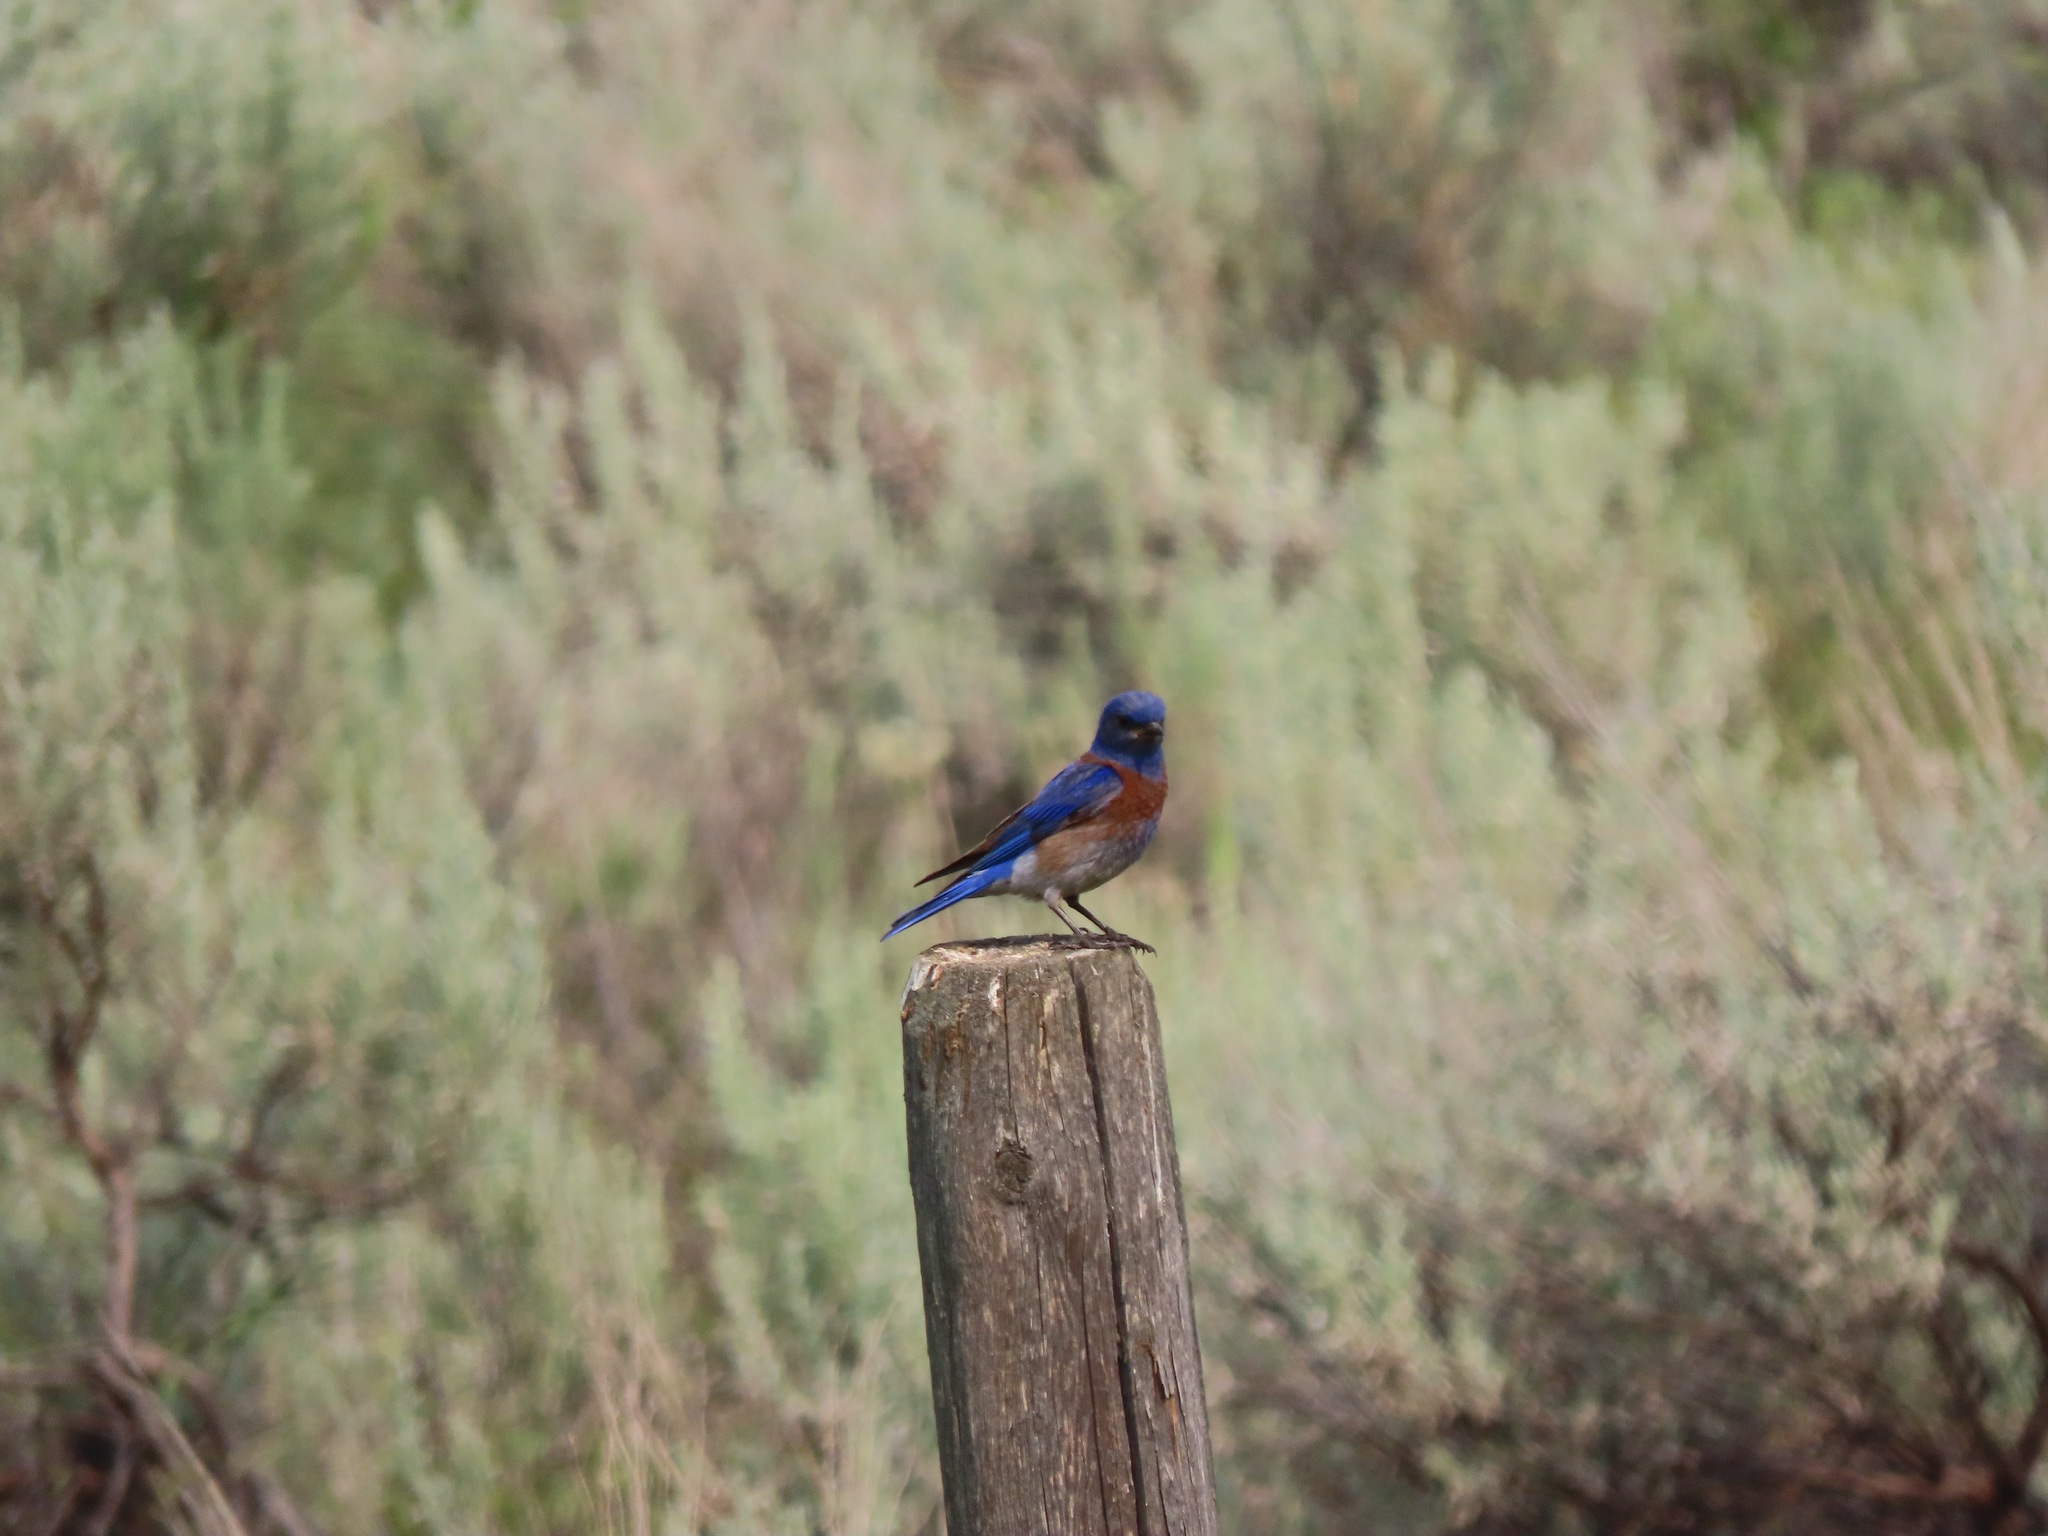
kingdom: Animalia
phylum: Chordata
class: Aves
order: Passeriformes
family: Turdidae
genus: Sialia
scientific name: Sialia mexicana
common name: Western bluebird
